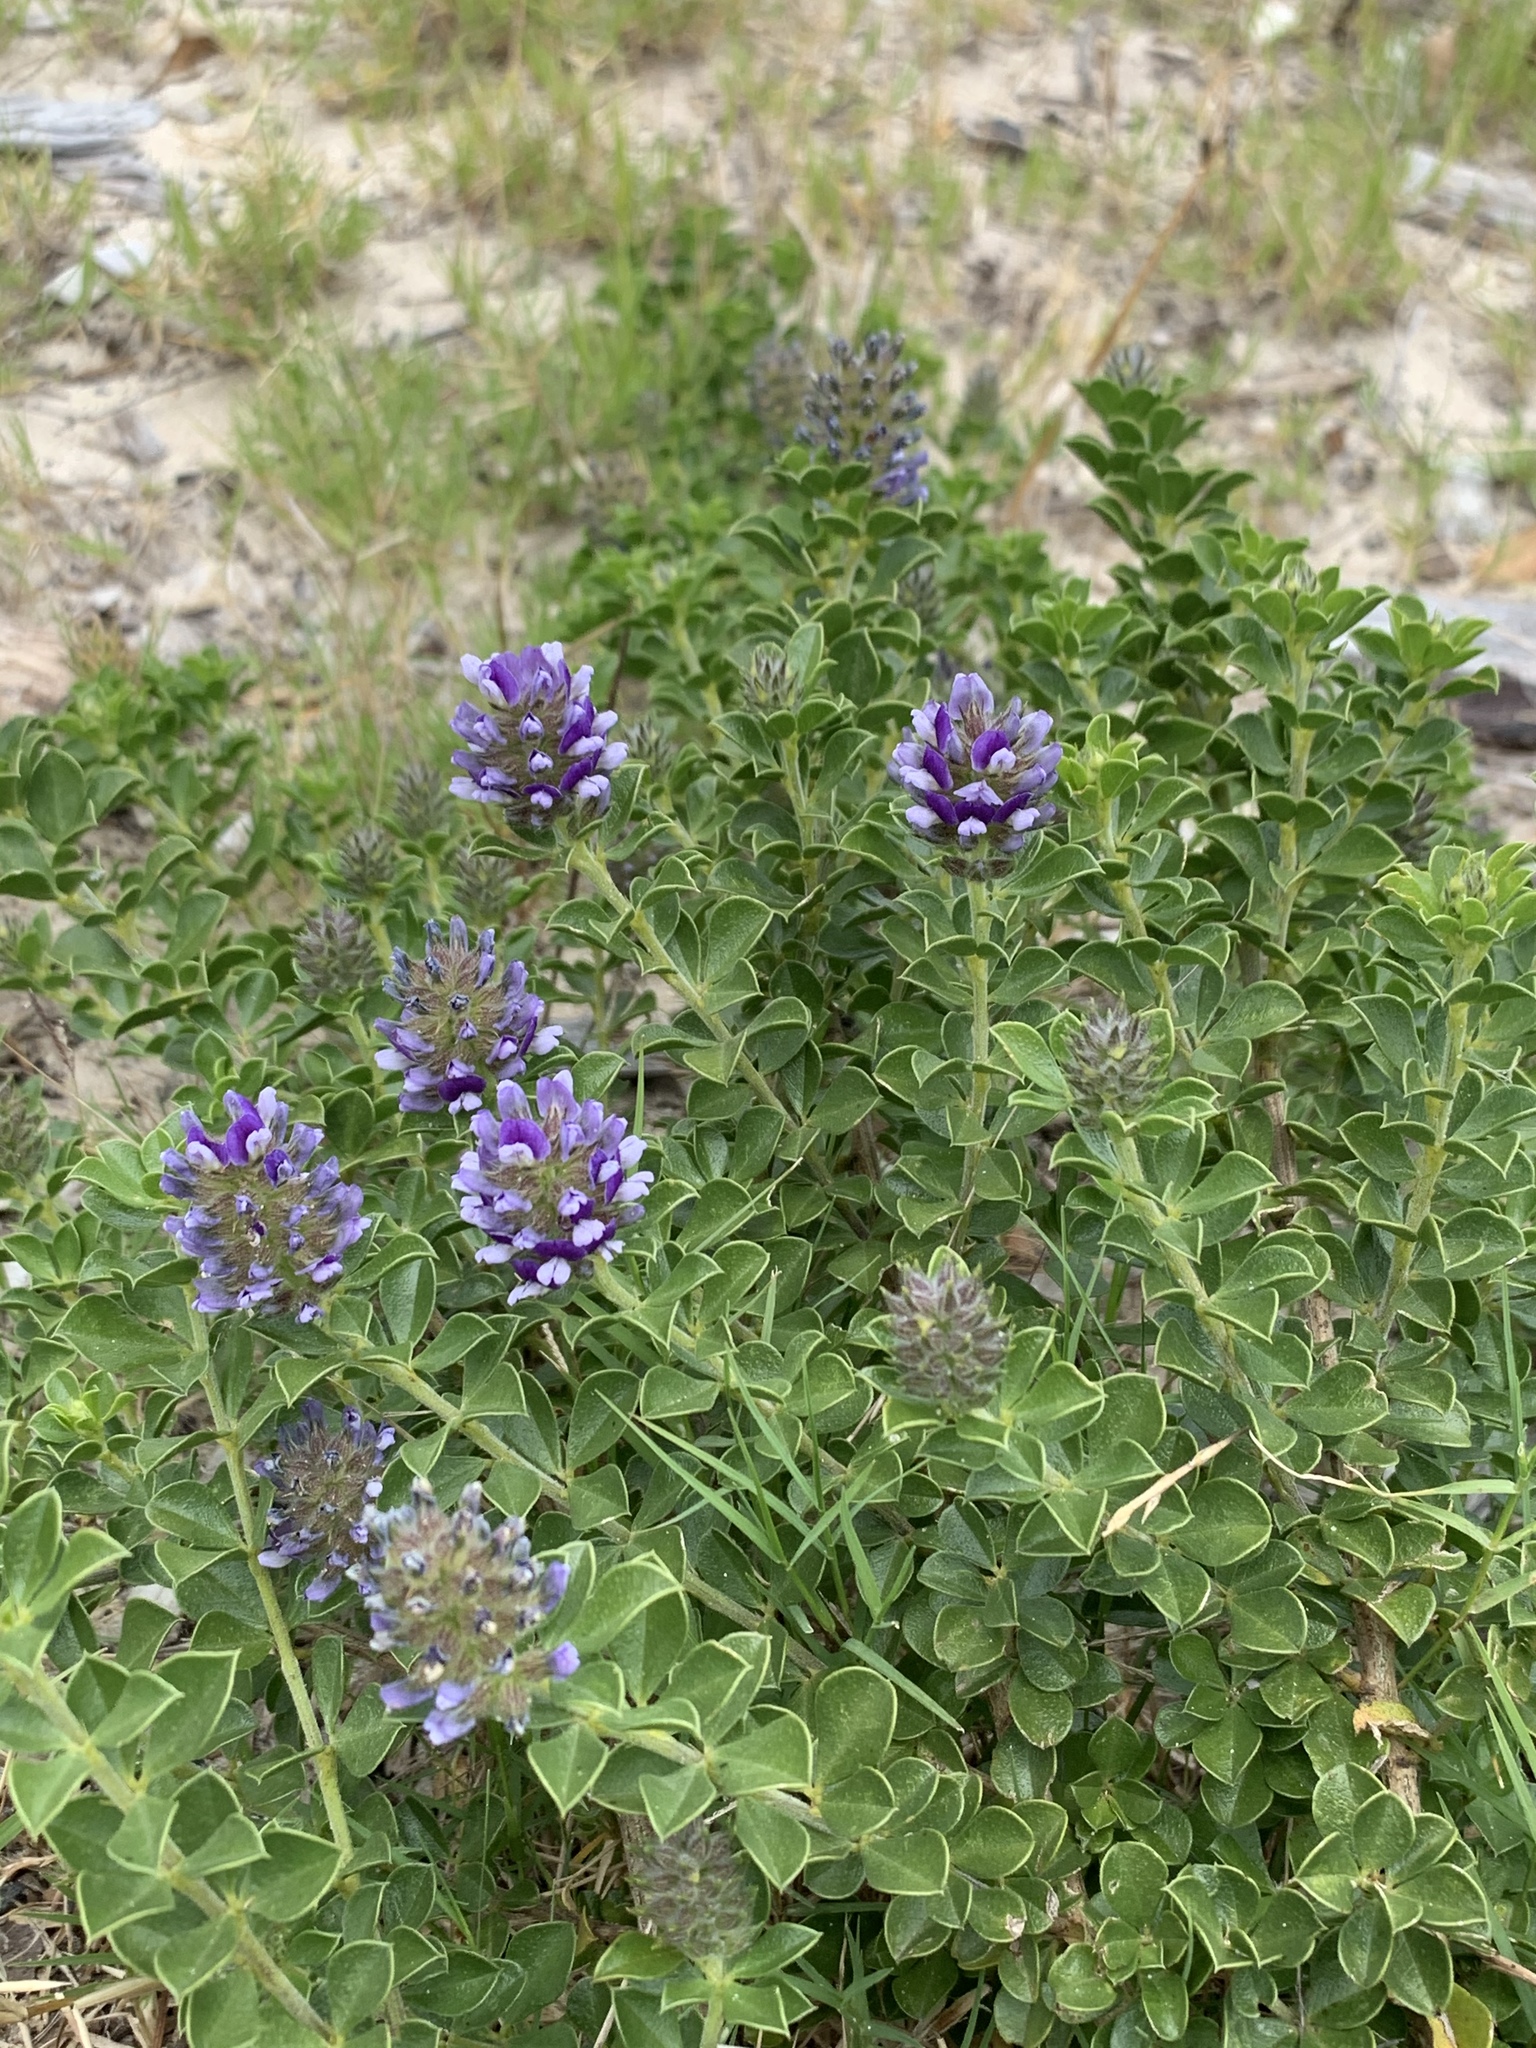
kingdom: Plantae
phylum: Tracheophyta
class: Magnoliopsida
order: Fabales
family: Fabaceae
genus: Psoralea
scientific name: Psoralea bracteolata
